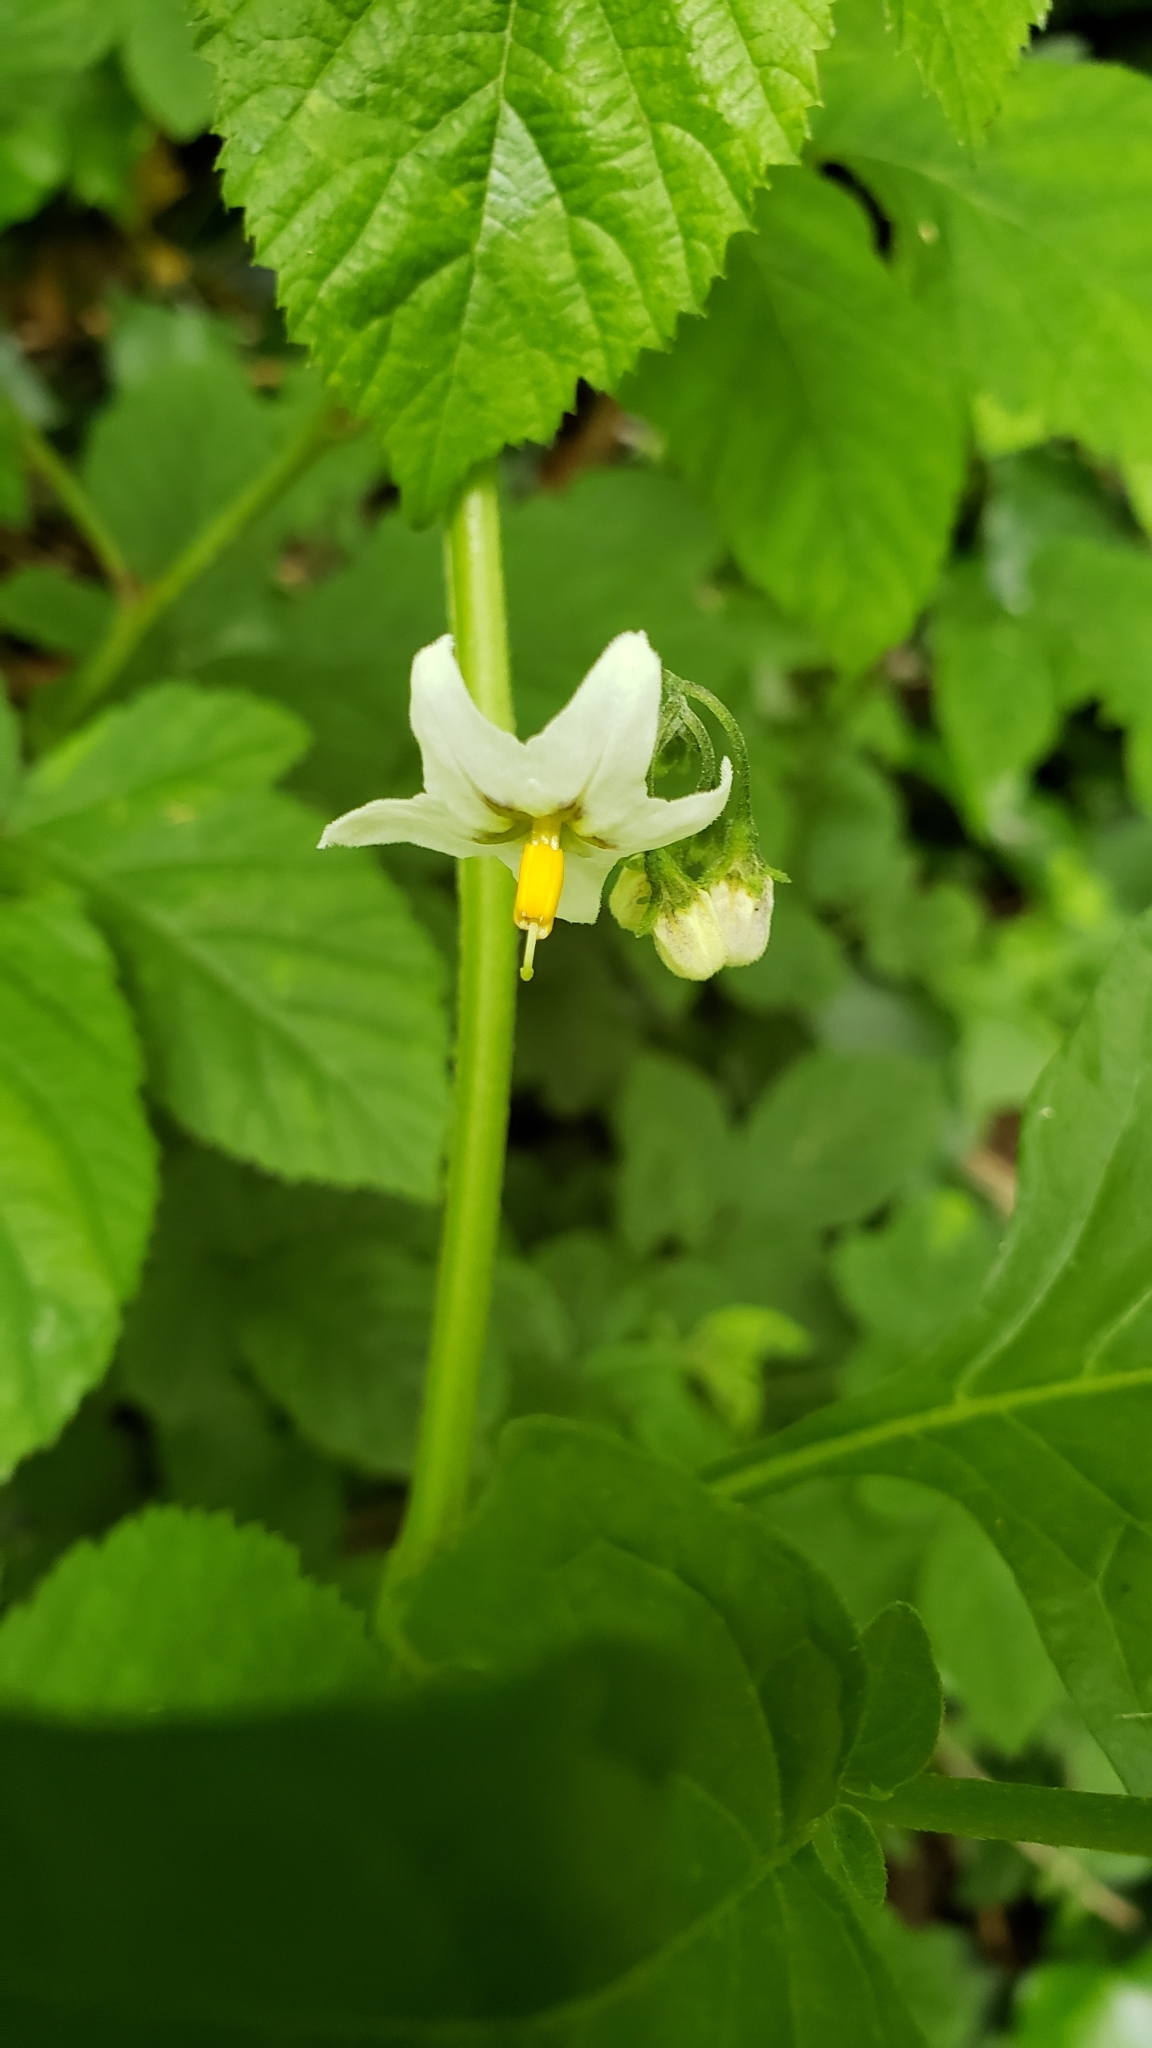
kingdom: Plantae
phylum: Tracheophyta
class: Magnoliopsida
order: Solanales
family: Solanaceae
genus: Solanum
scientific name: Solanum furcatum
